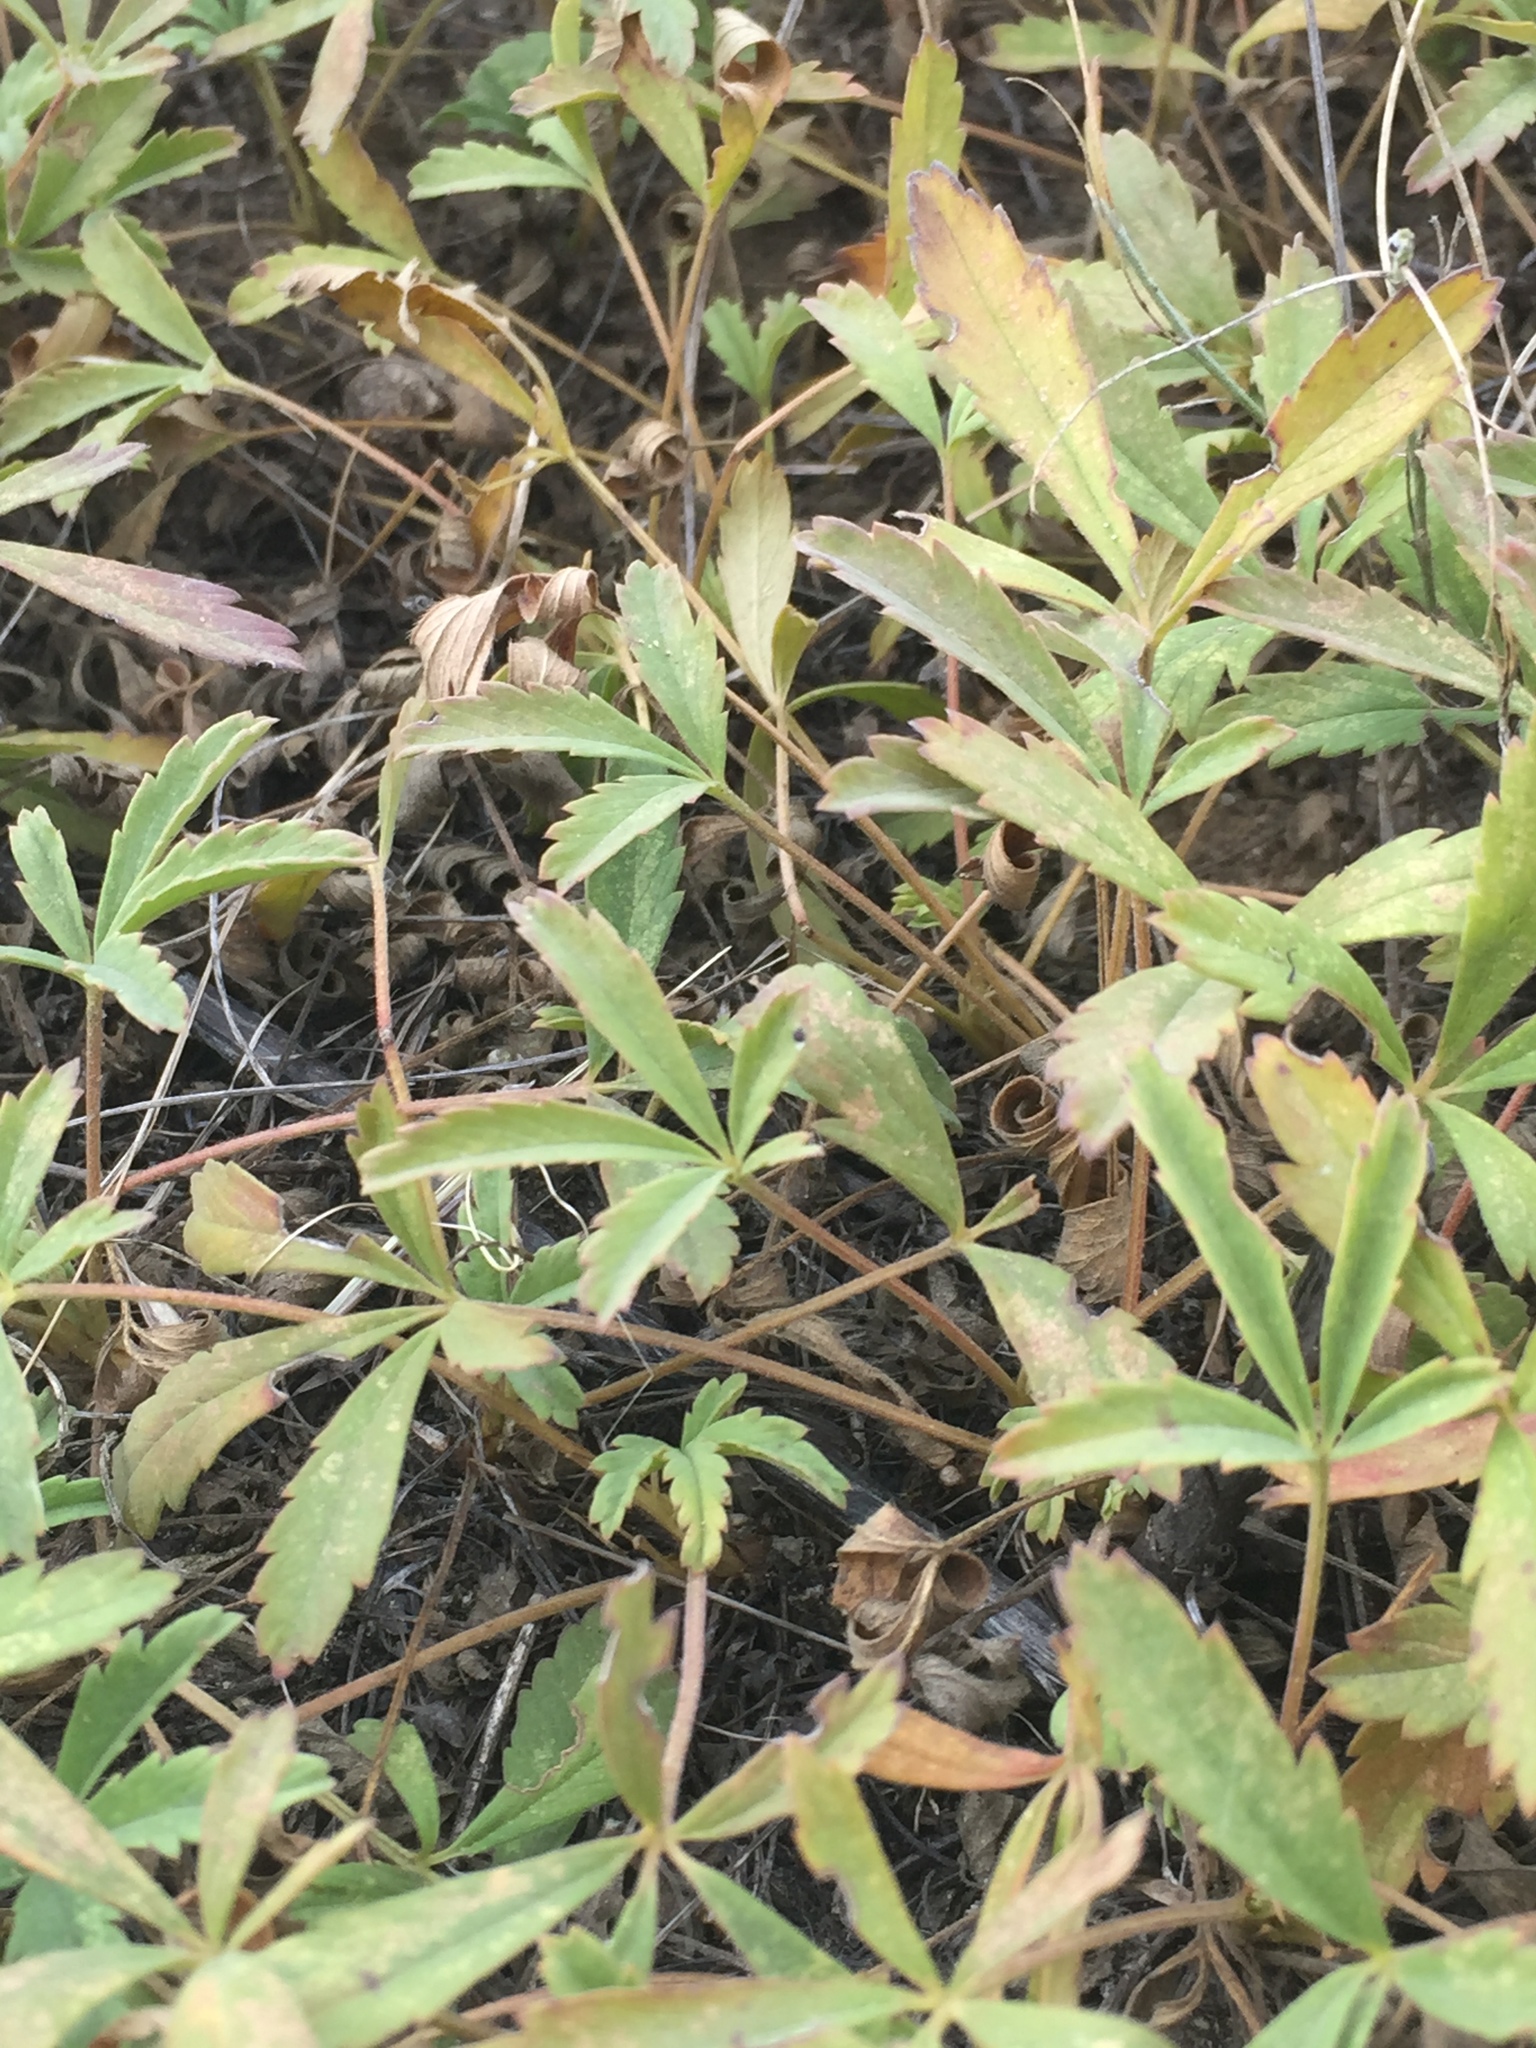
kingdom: Plantae
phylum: Tracheophyta
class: Magnoliopsida
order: Rosales
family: Rosaceae
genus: Potentilla
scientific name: Potentilla incana
